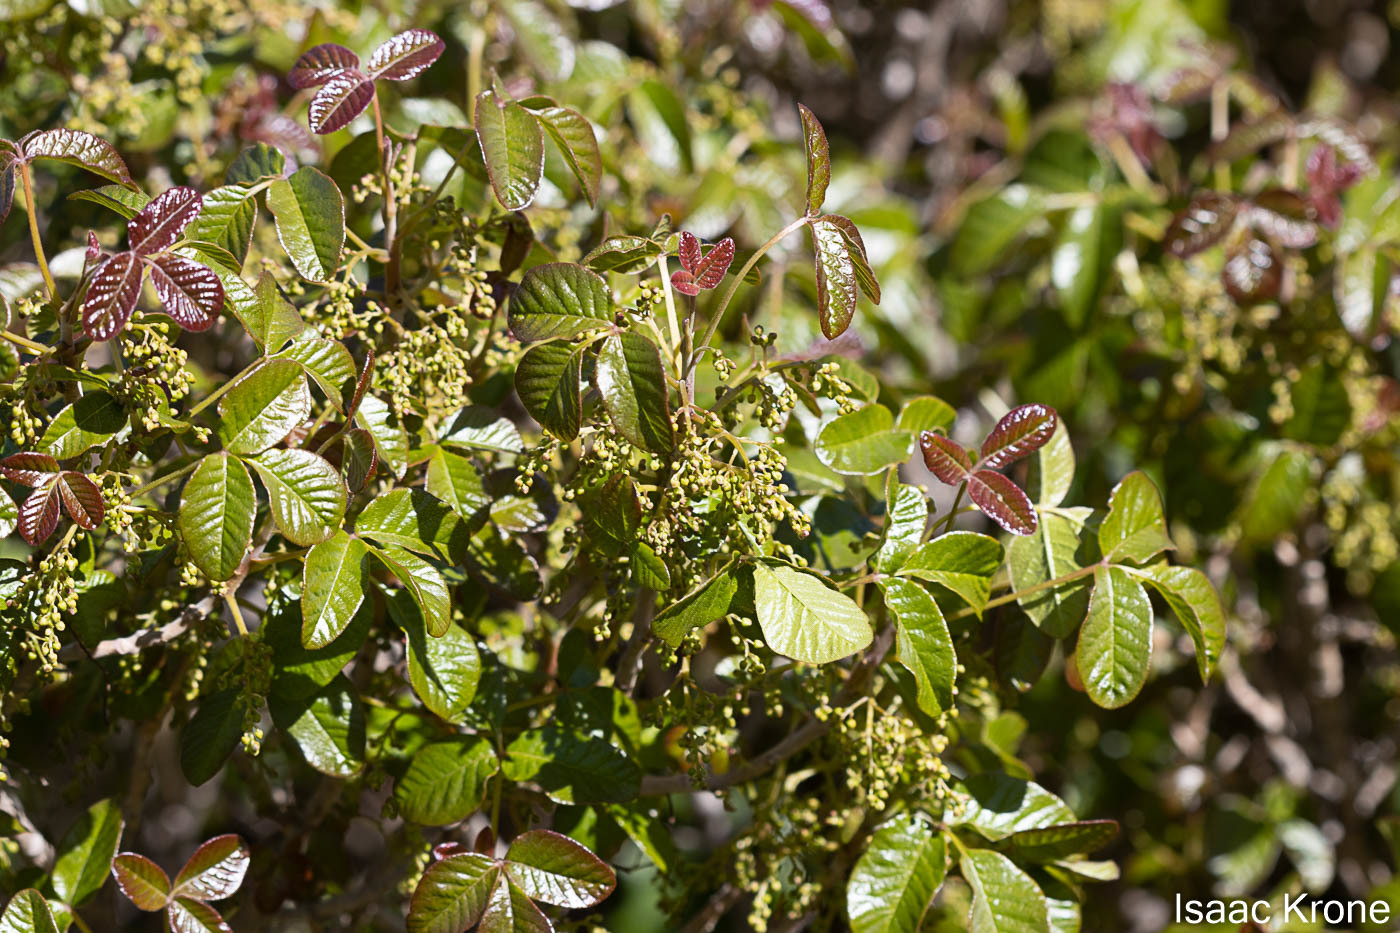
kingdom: Plantae
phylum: Tracheophyta
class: Magnoliopsida
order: Sapindales
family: Anacardiaceae
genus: Toxicodendron
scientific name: Toxicodendron diversilobum
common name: Pacific poison-oak
